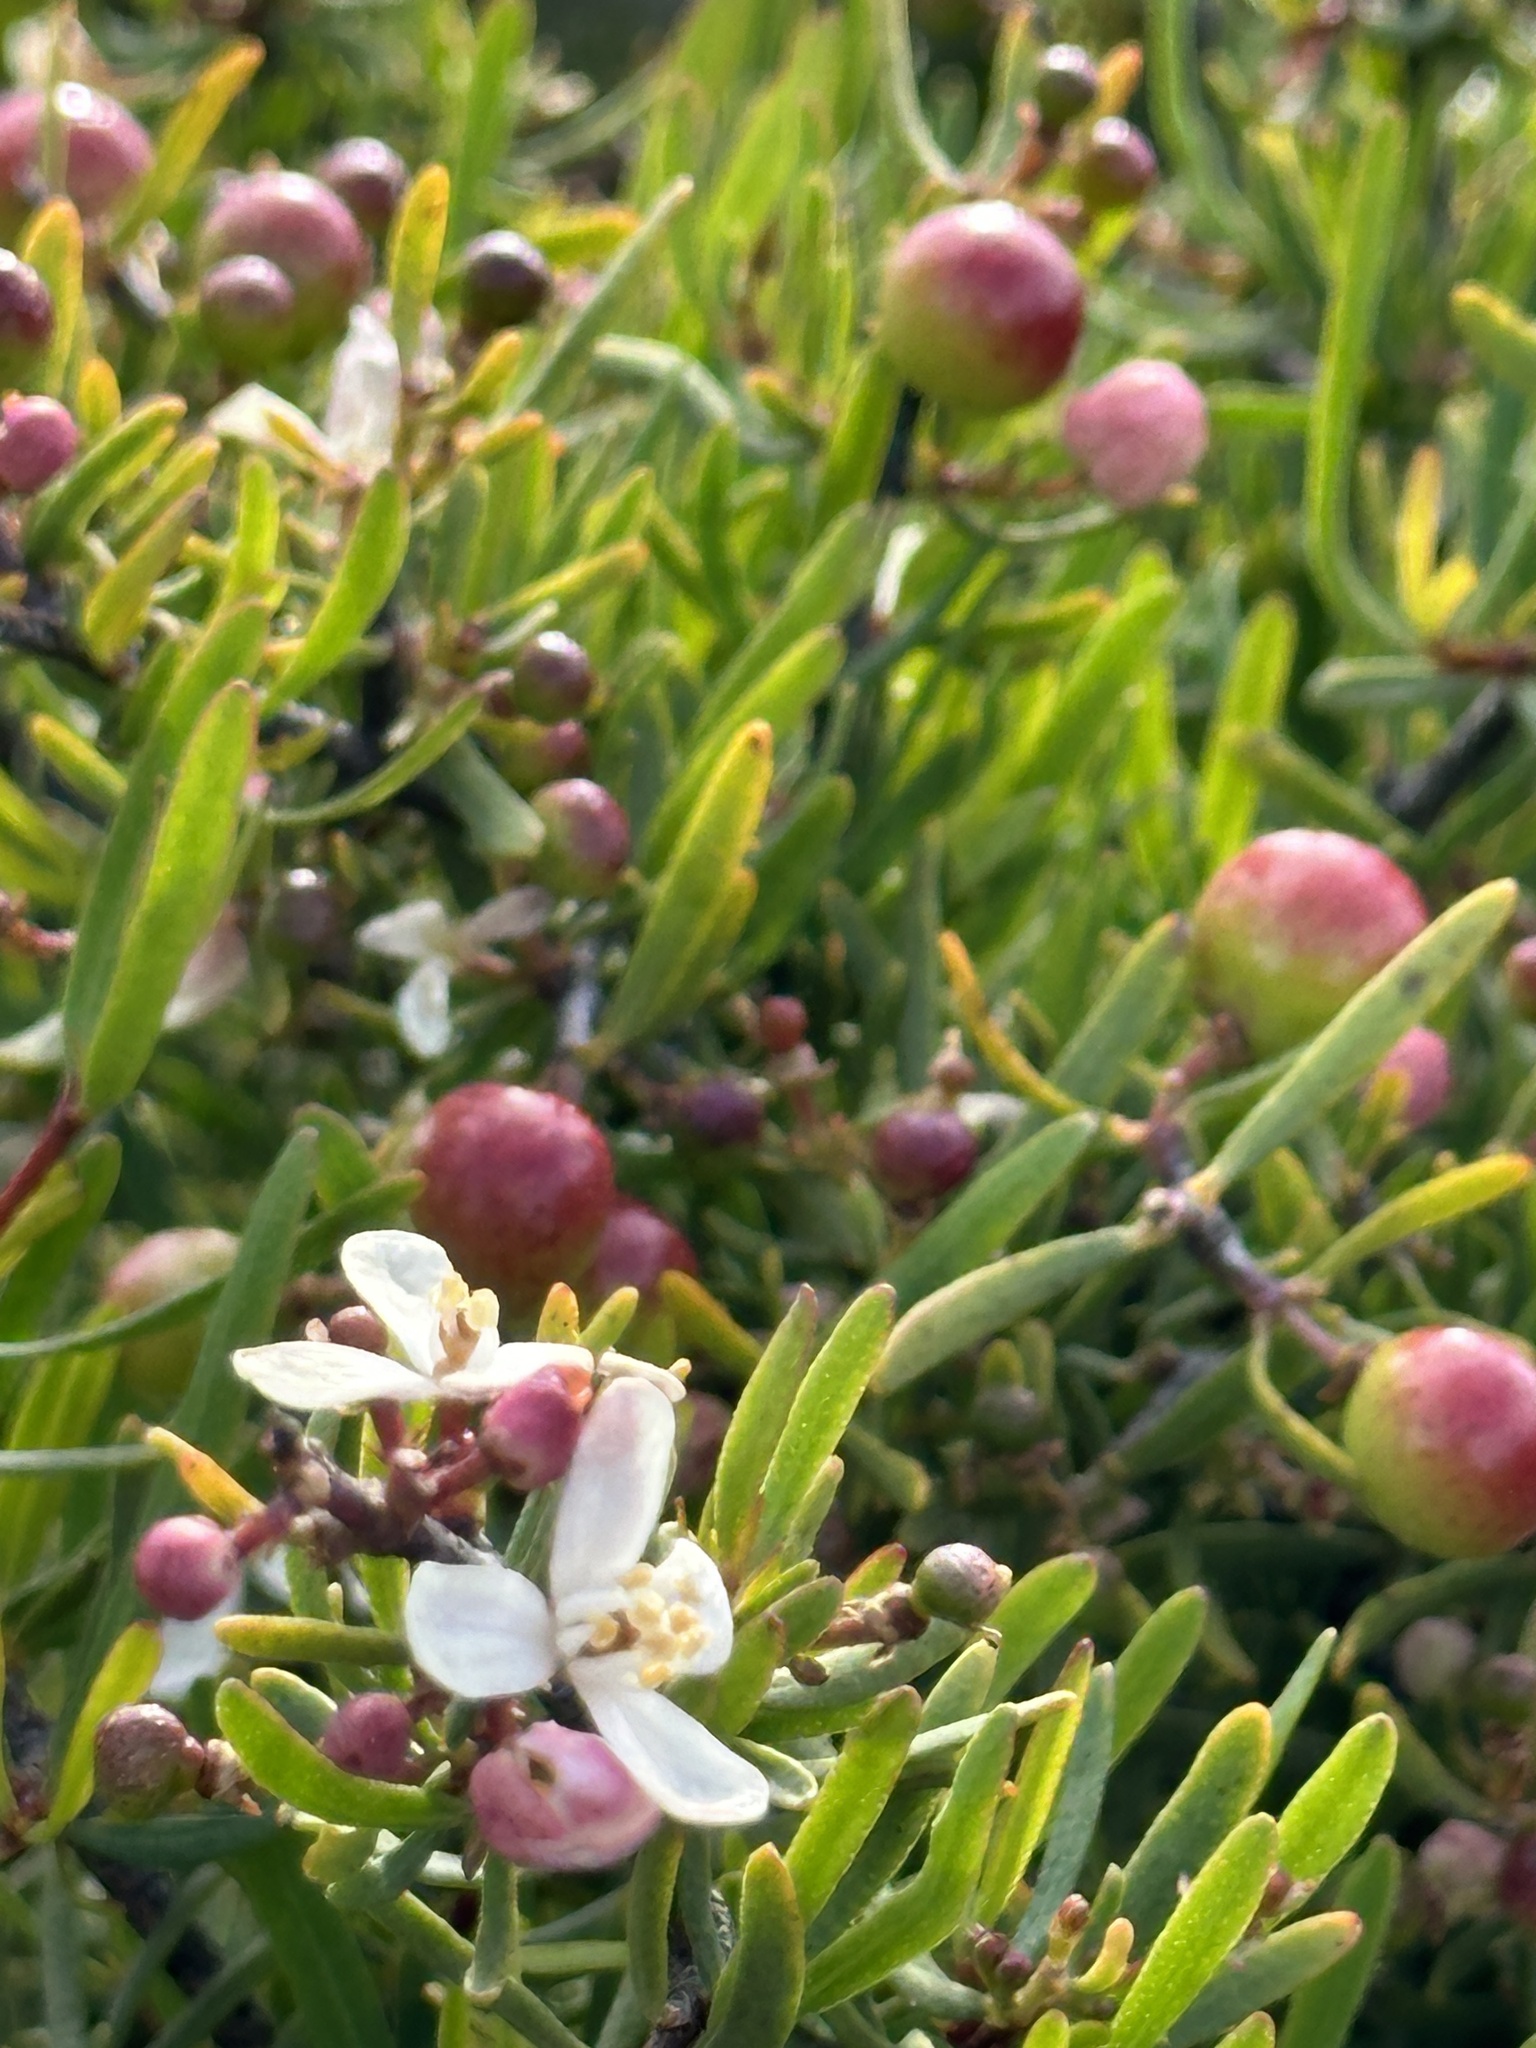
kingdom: Plantae
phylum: Tracheophyta
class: Magnoliopsida
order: Sapindales
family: Rutaceae
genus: Cneoridium
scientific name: Cneoridium dumosum
